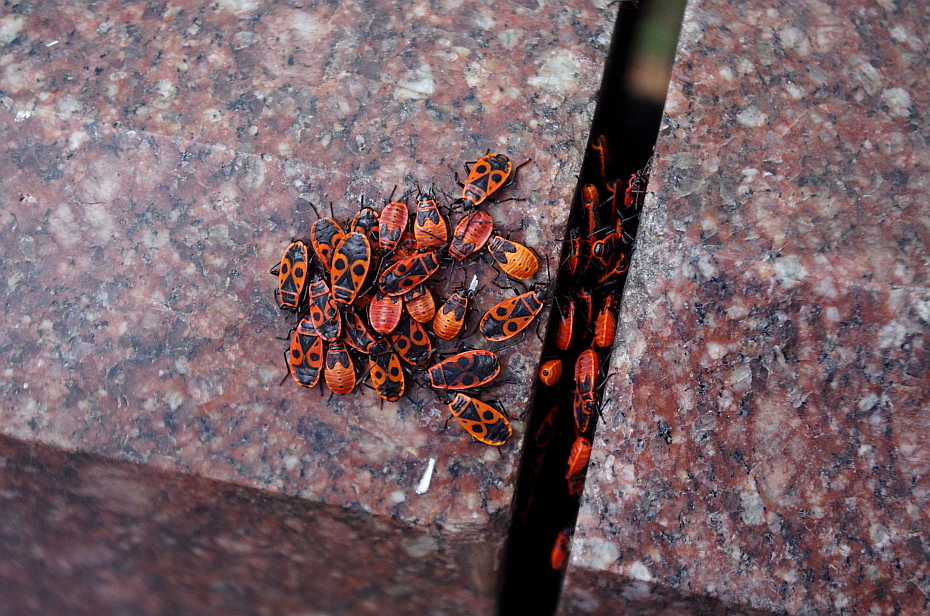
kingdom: Animalia
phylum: Arthropoda
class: Insecta
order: Hemiptera
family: Pyrrhocoridae
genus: Pyrrhocoris
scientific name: Pyrrhocoris apterus
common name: Firebug
